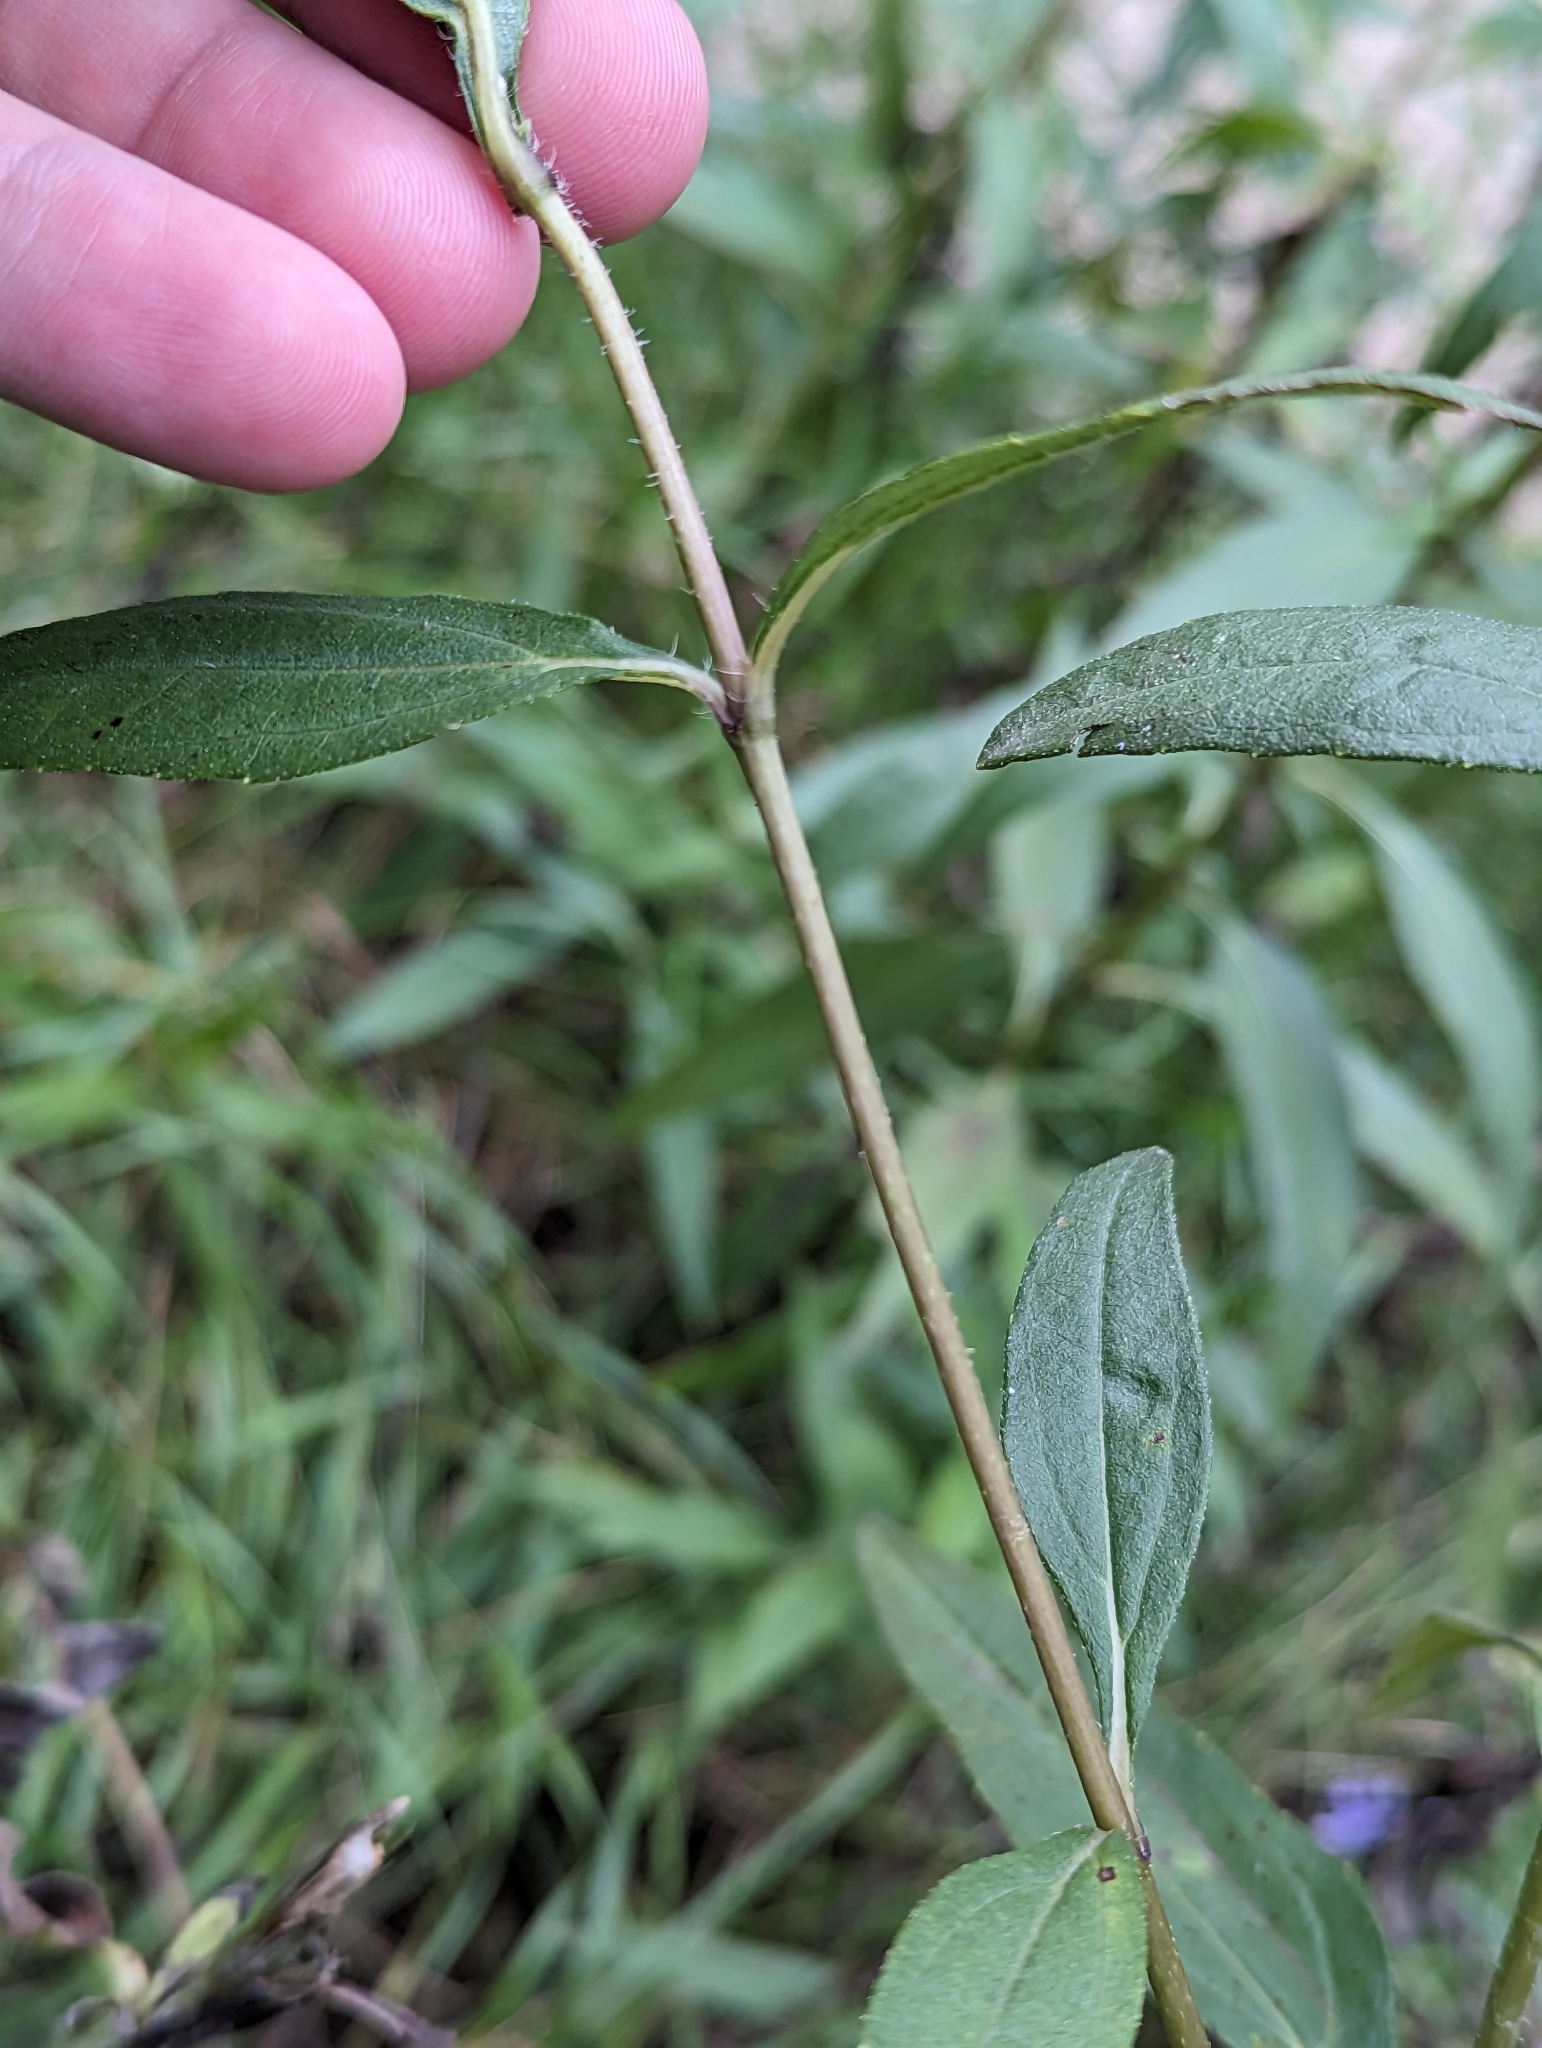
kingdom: Plantae
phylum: Tracheophyta
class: Magnoliopsida
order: Asterales
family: Asteraceae
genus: Helianthus
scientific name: Helianthus nuttallii
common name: Nuttall's sunflower
